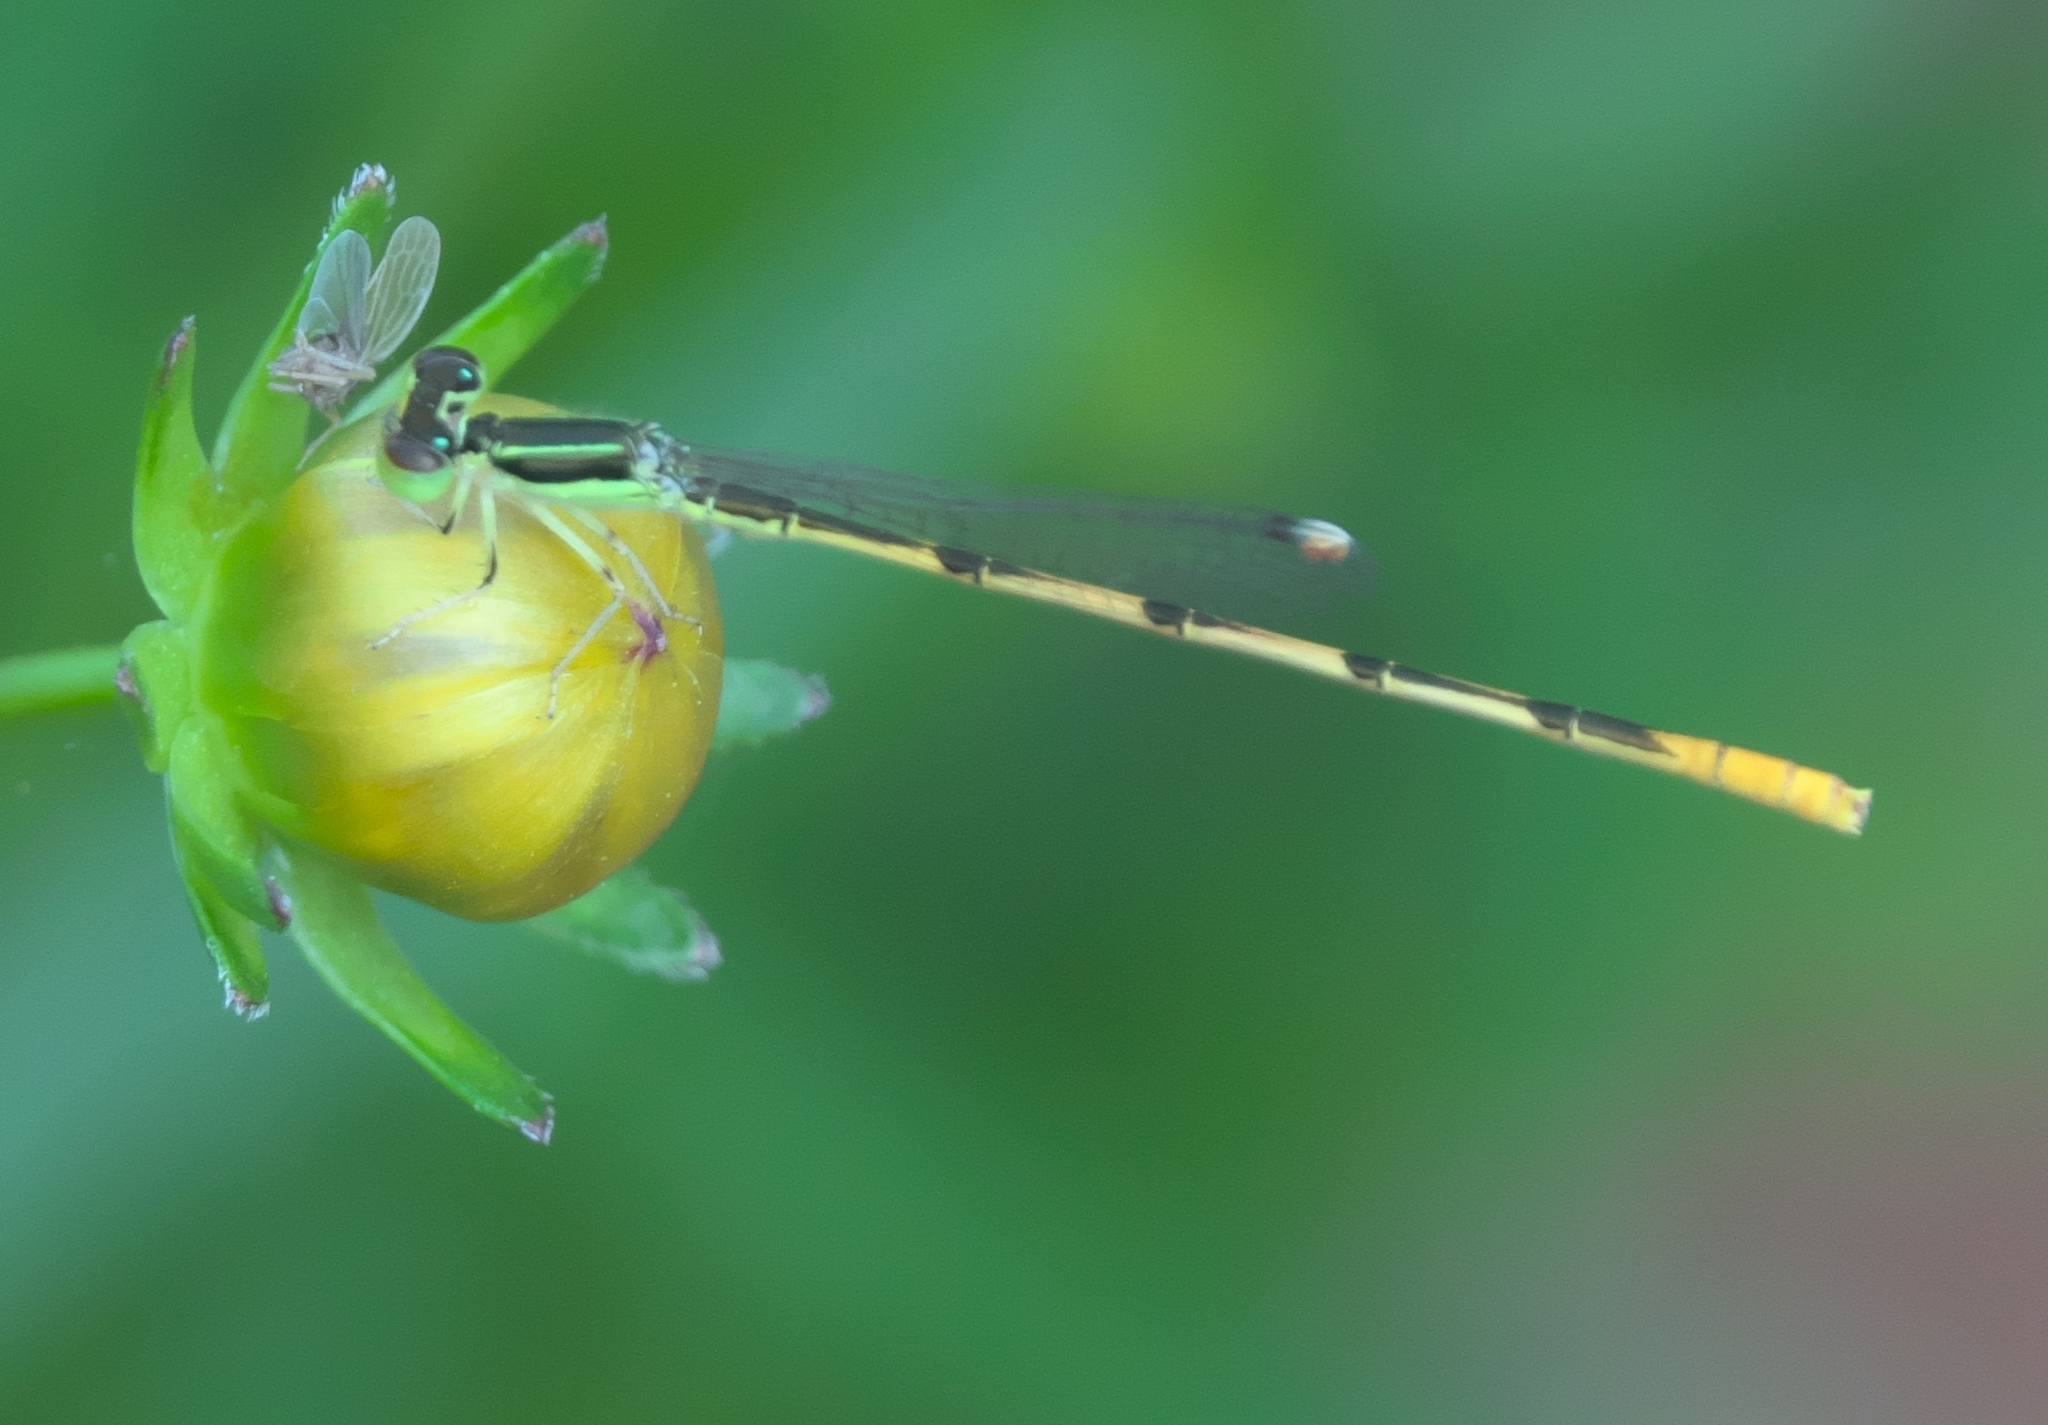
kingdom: Animalia
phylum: Arthropoda
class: Insecta
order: Odonata
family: Coenagrionidae
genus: Ischnura
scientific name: Ischnura hastata
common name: Citrine forktail
